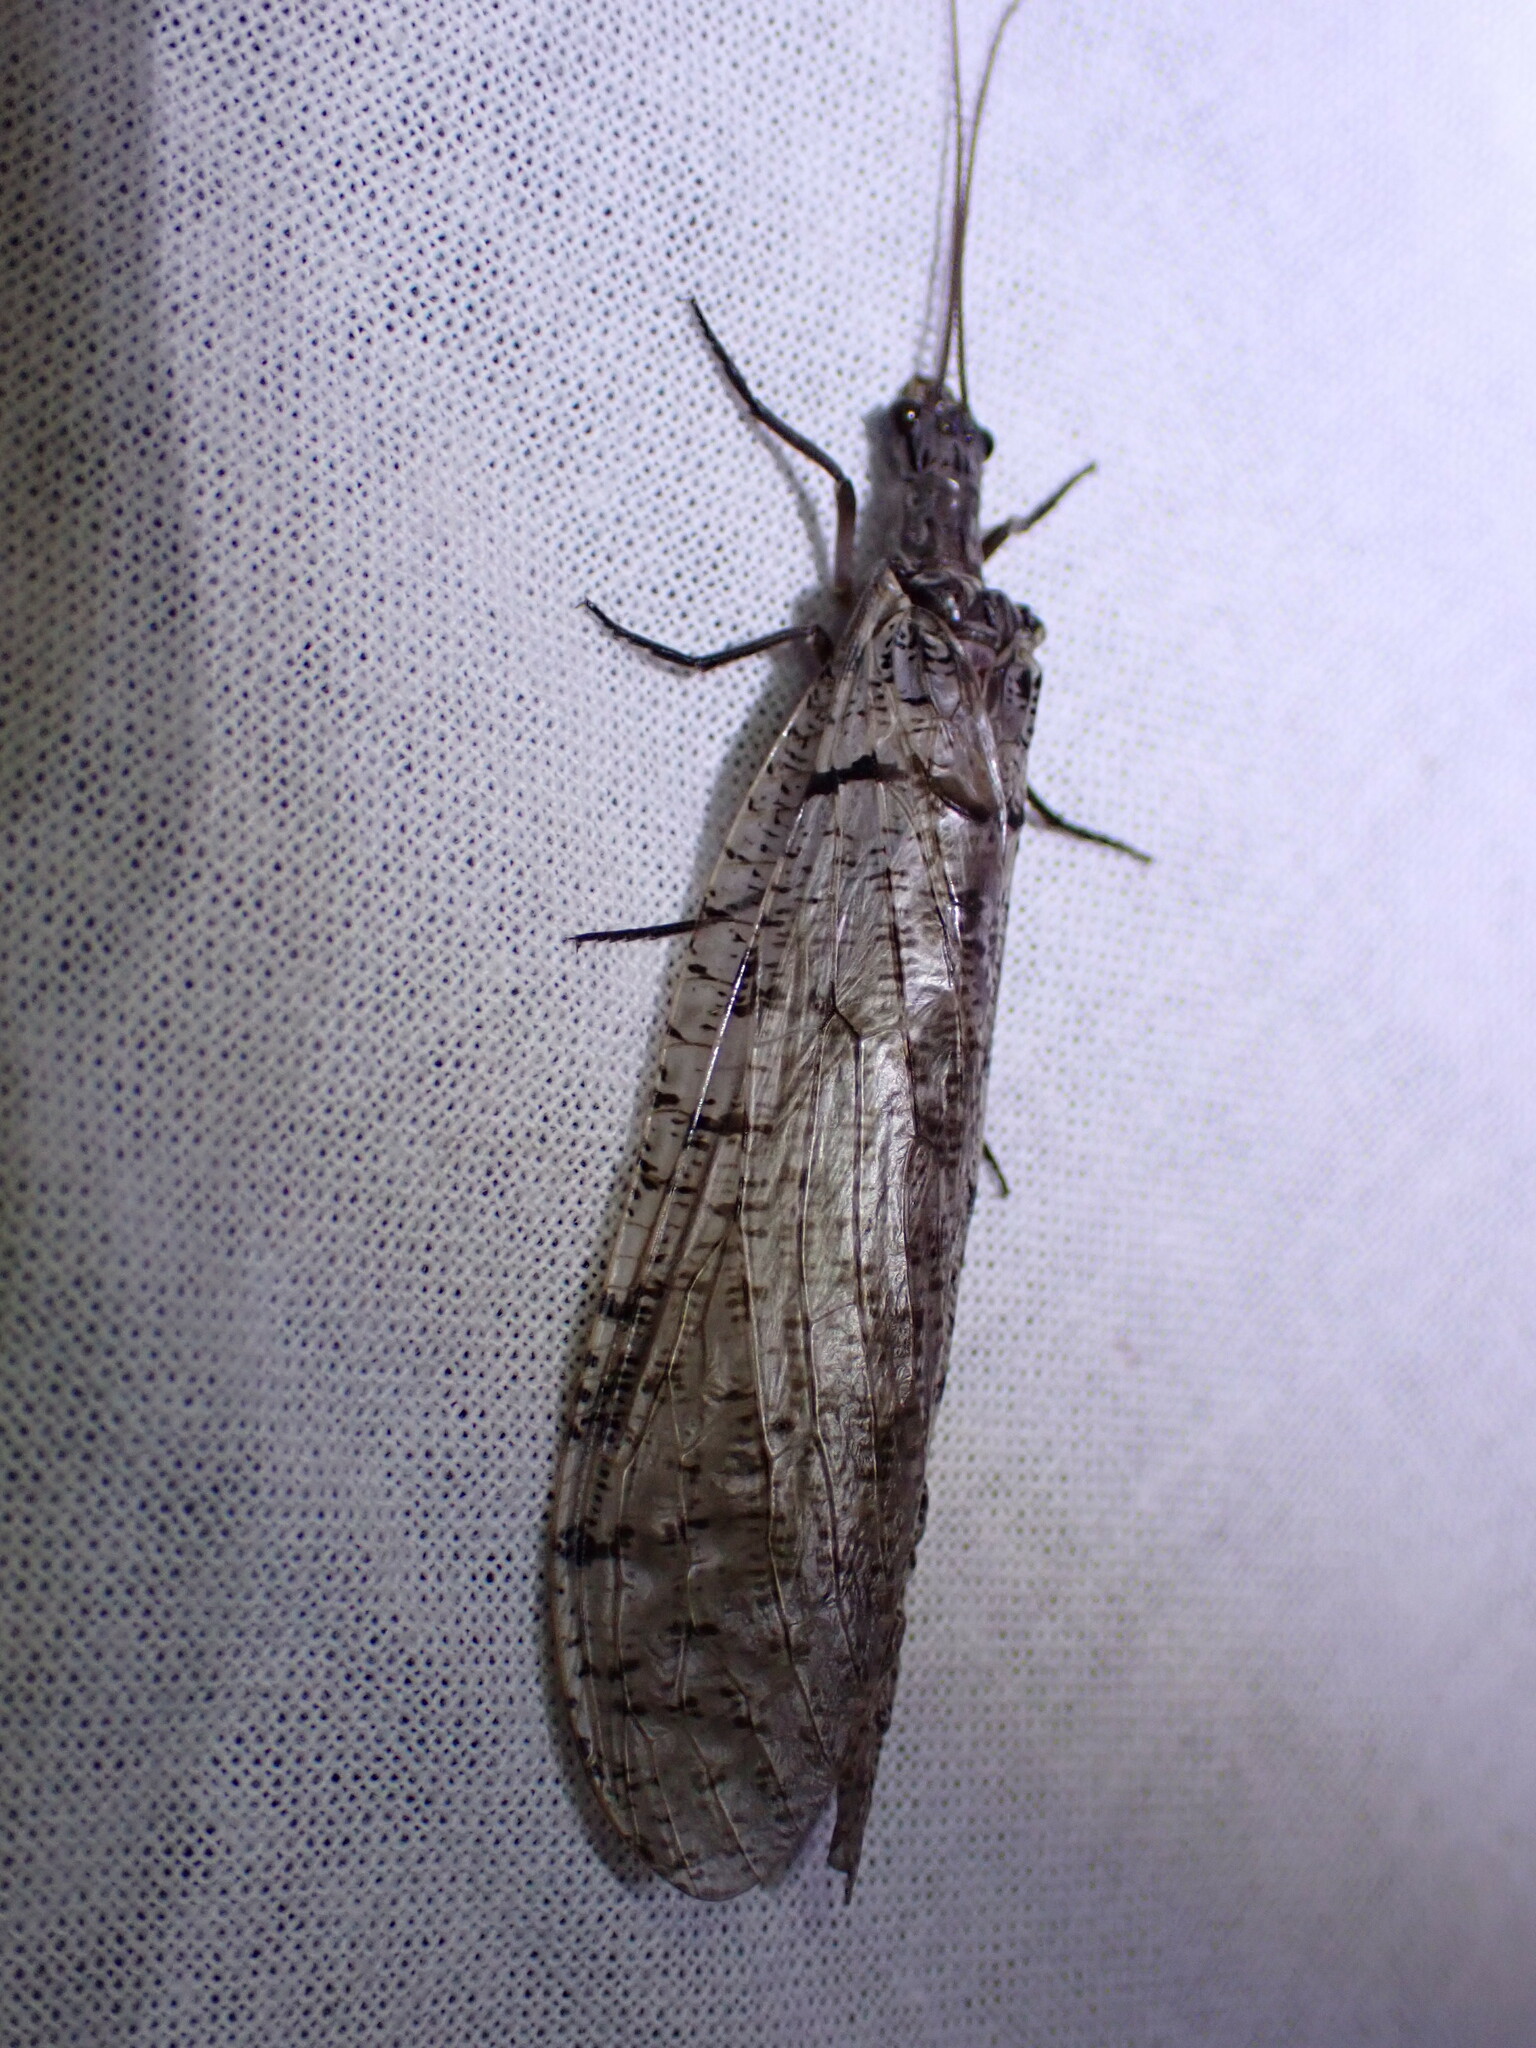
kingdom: Animalia
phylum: Arthropoda
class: Insecta
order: Megaloptera
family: Corydalidae
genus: Neohermes
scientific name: Neohermes filicornis
